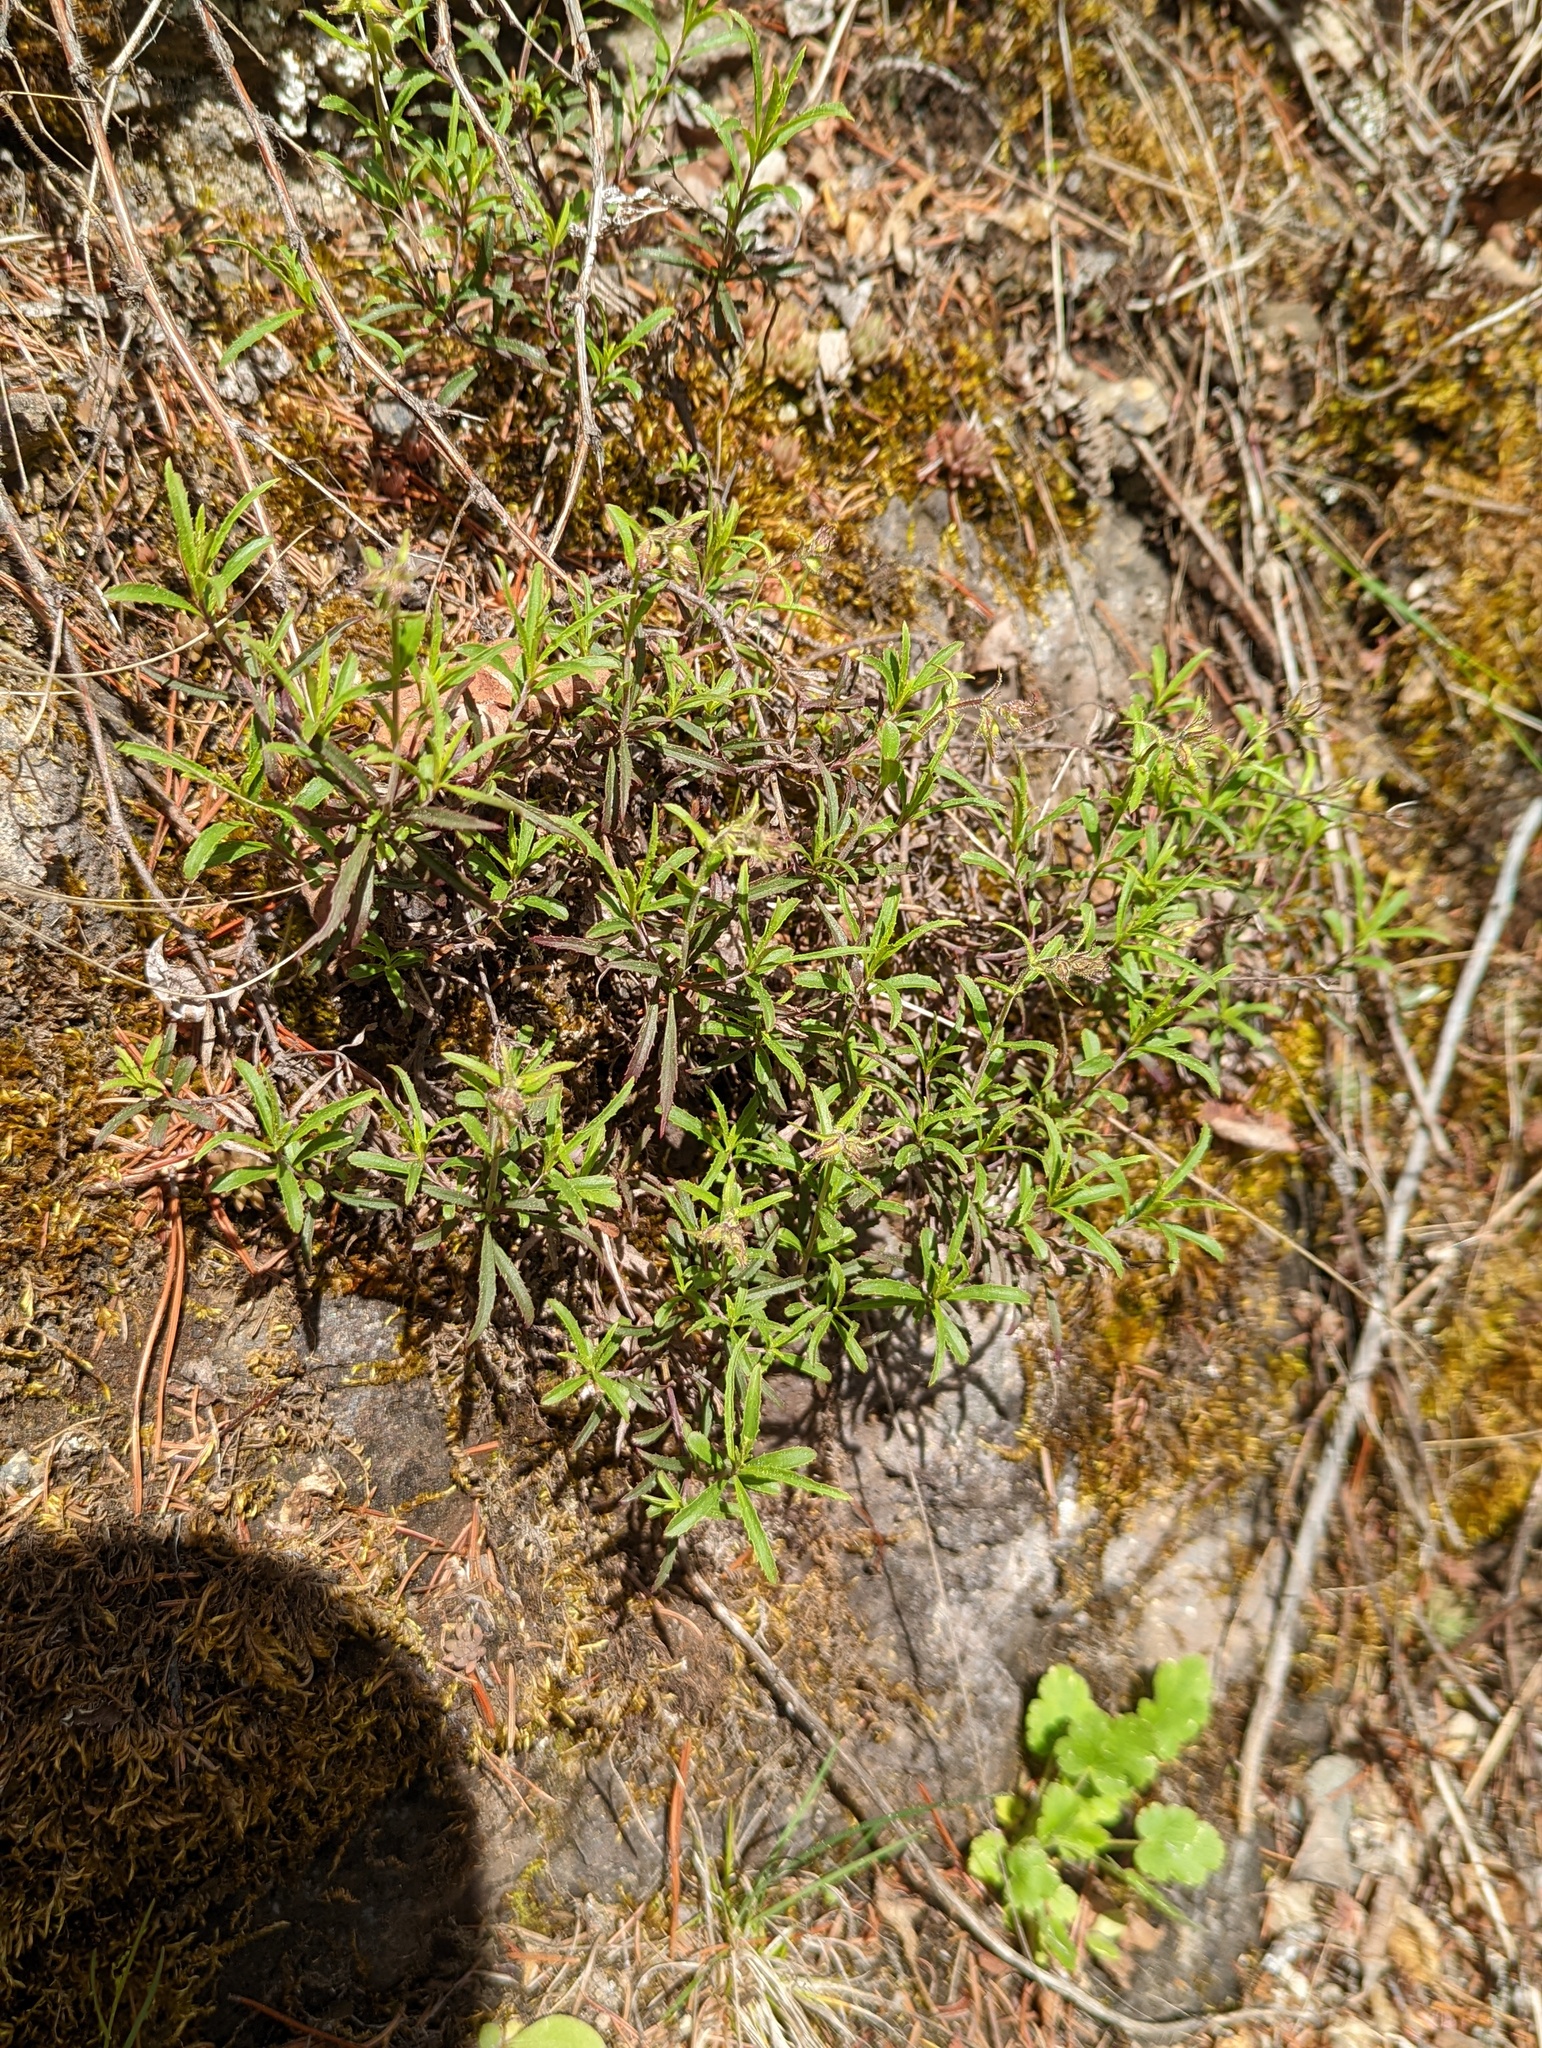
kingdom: Plantae
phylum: Tracheophyta
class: Magnoliopsida
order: Lamiales
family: Plantaginaceae
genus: Penstemon
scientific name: Penstemon fruticosus
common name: Bush penstemon
